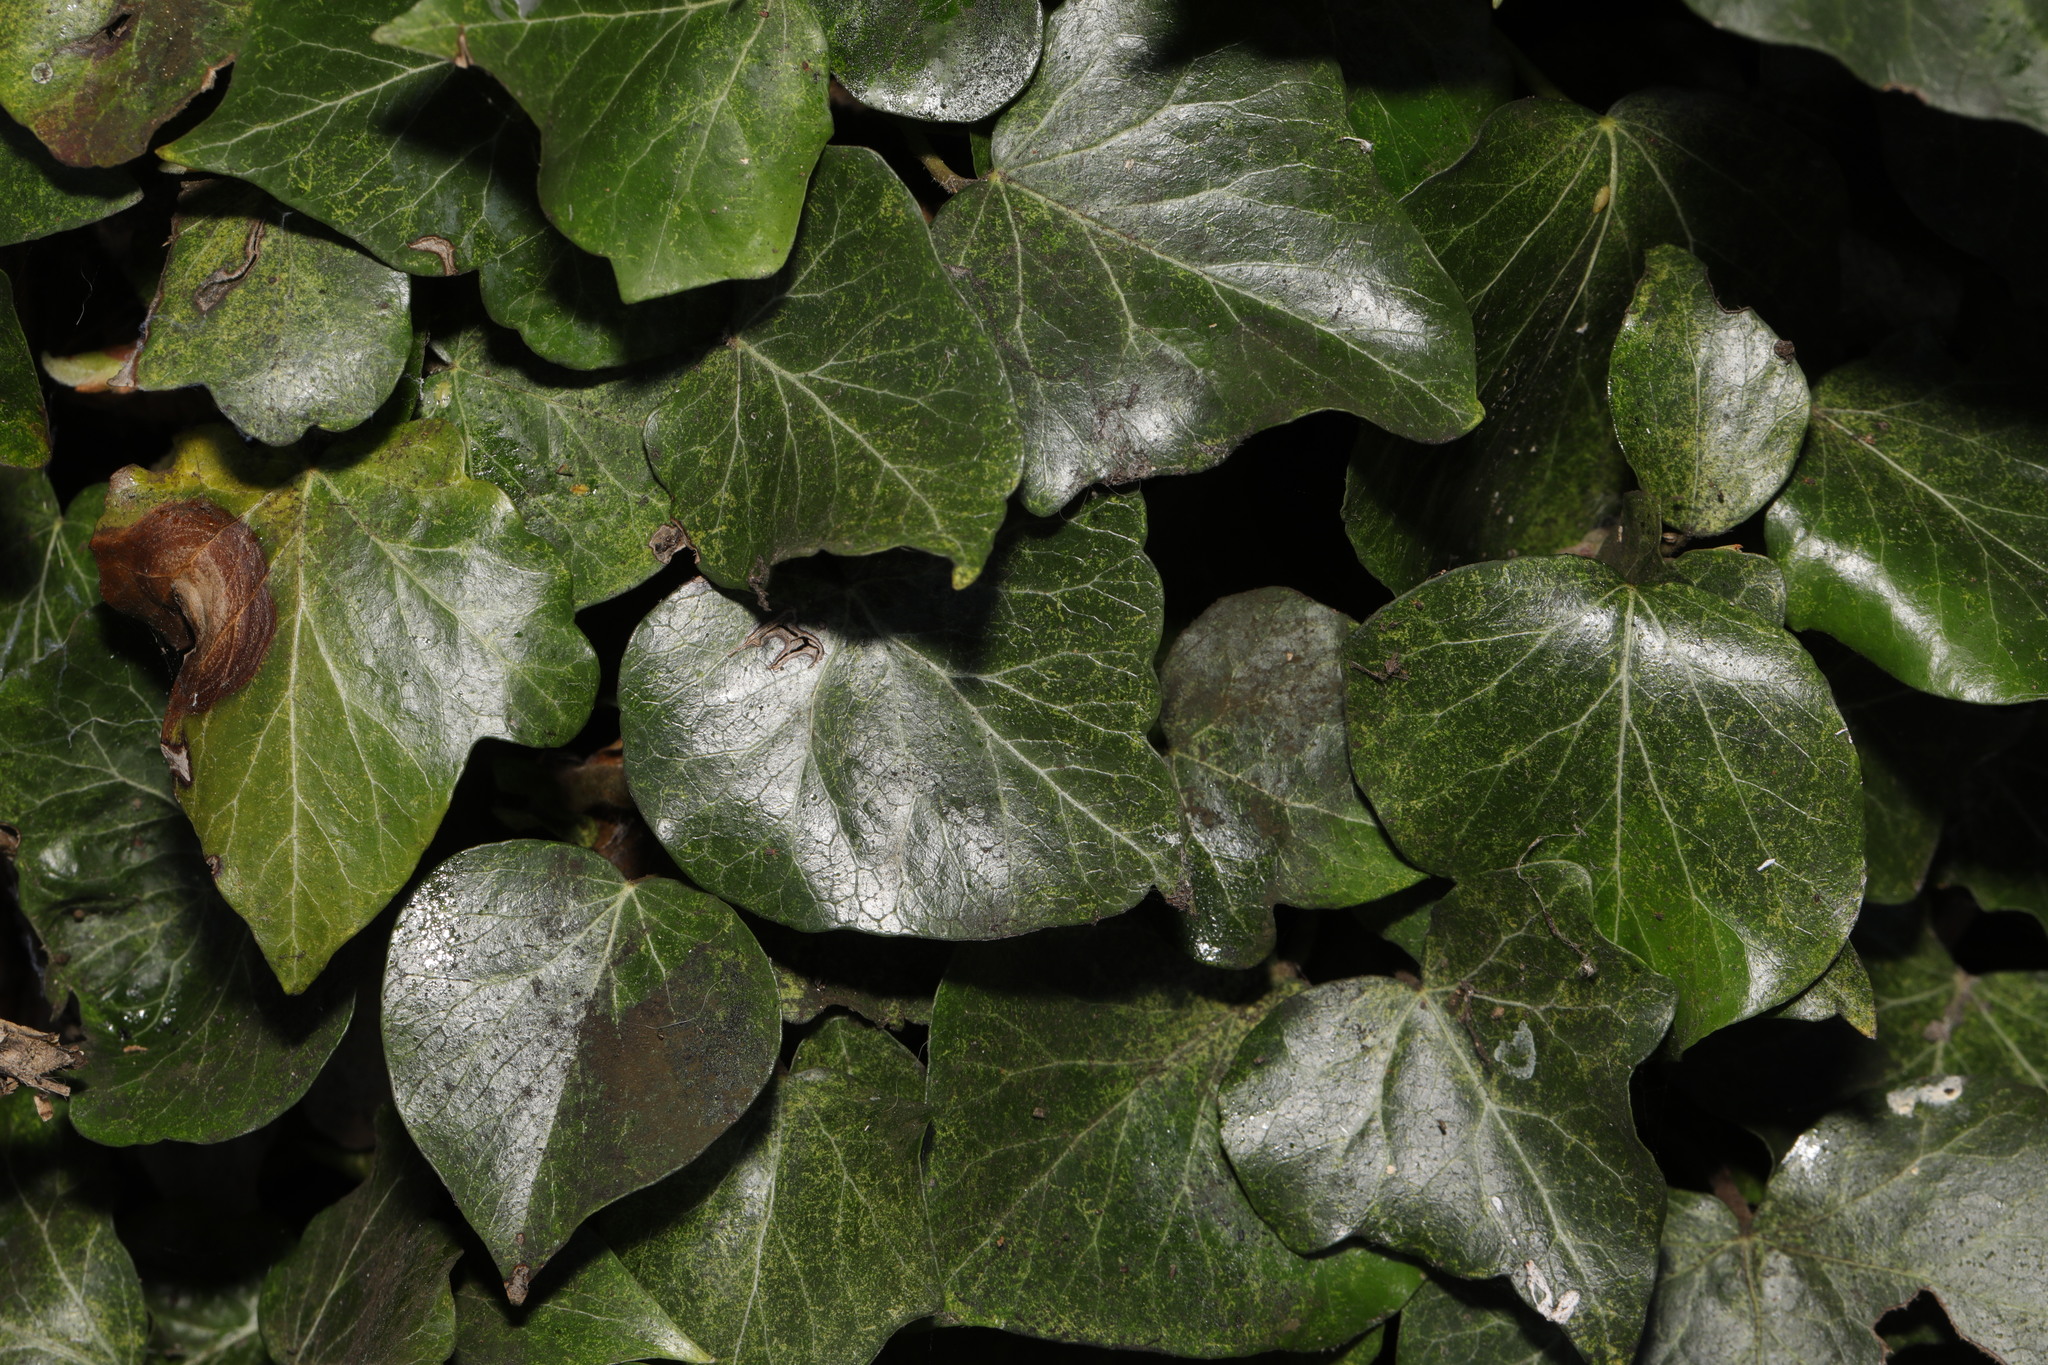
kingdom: Plantae
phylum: Tracheophyta
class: Magnoliopsida
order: Apiales
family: Araliaceae
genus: Hedera
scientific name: Hedera helix
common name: Ivy
